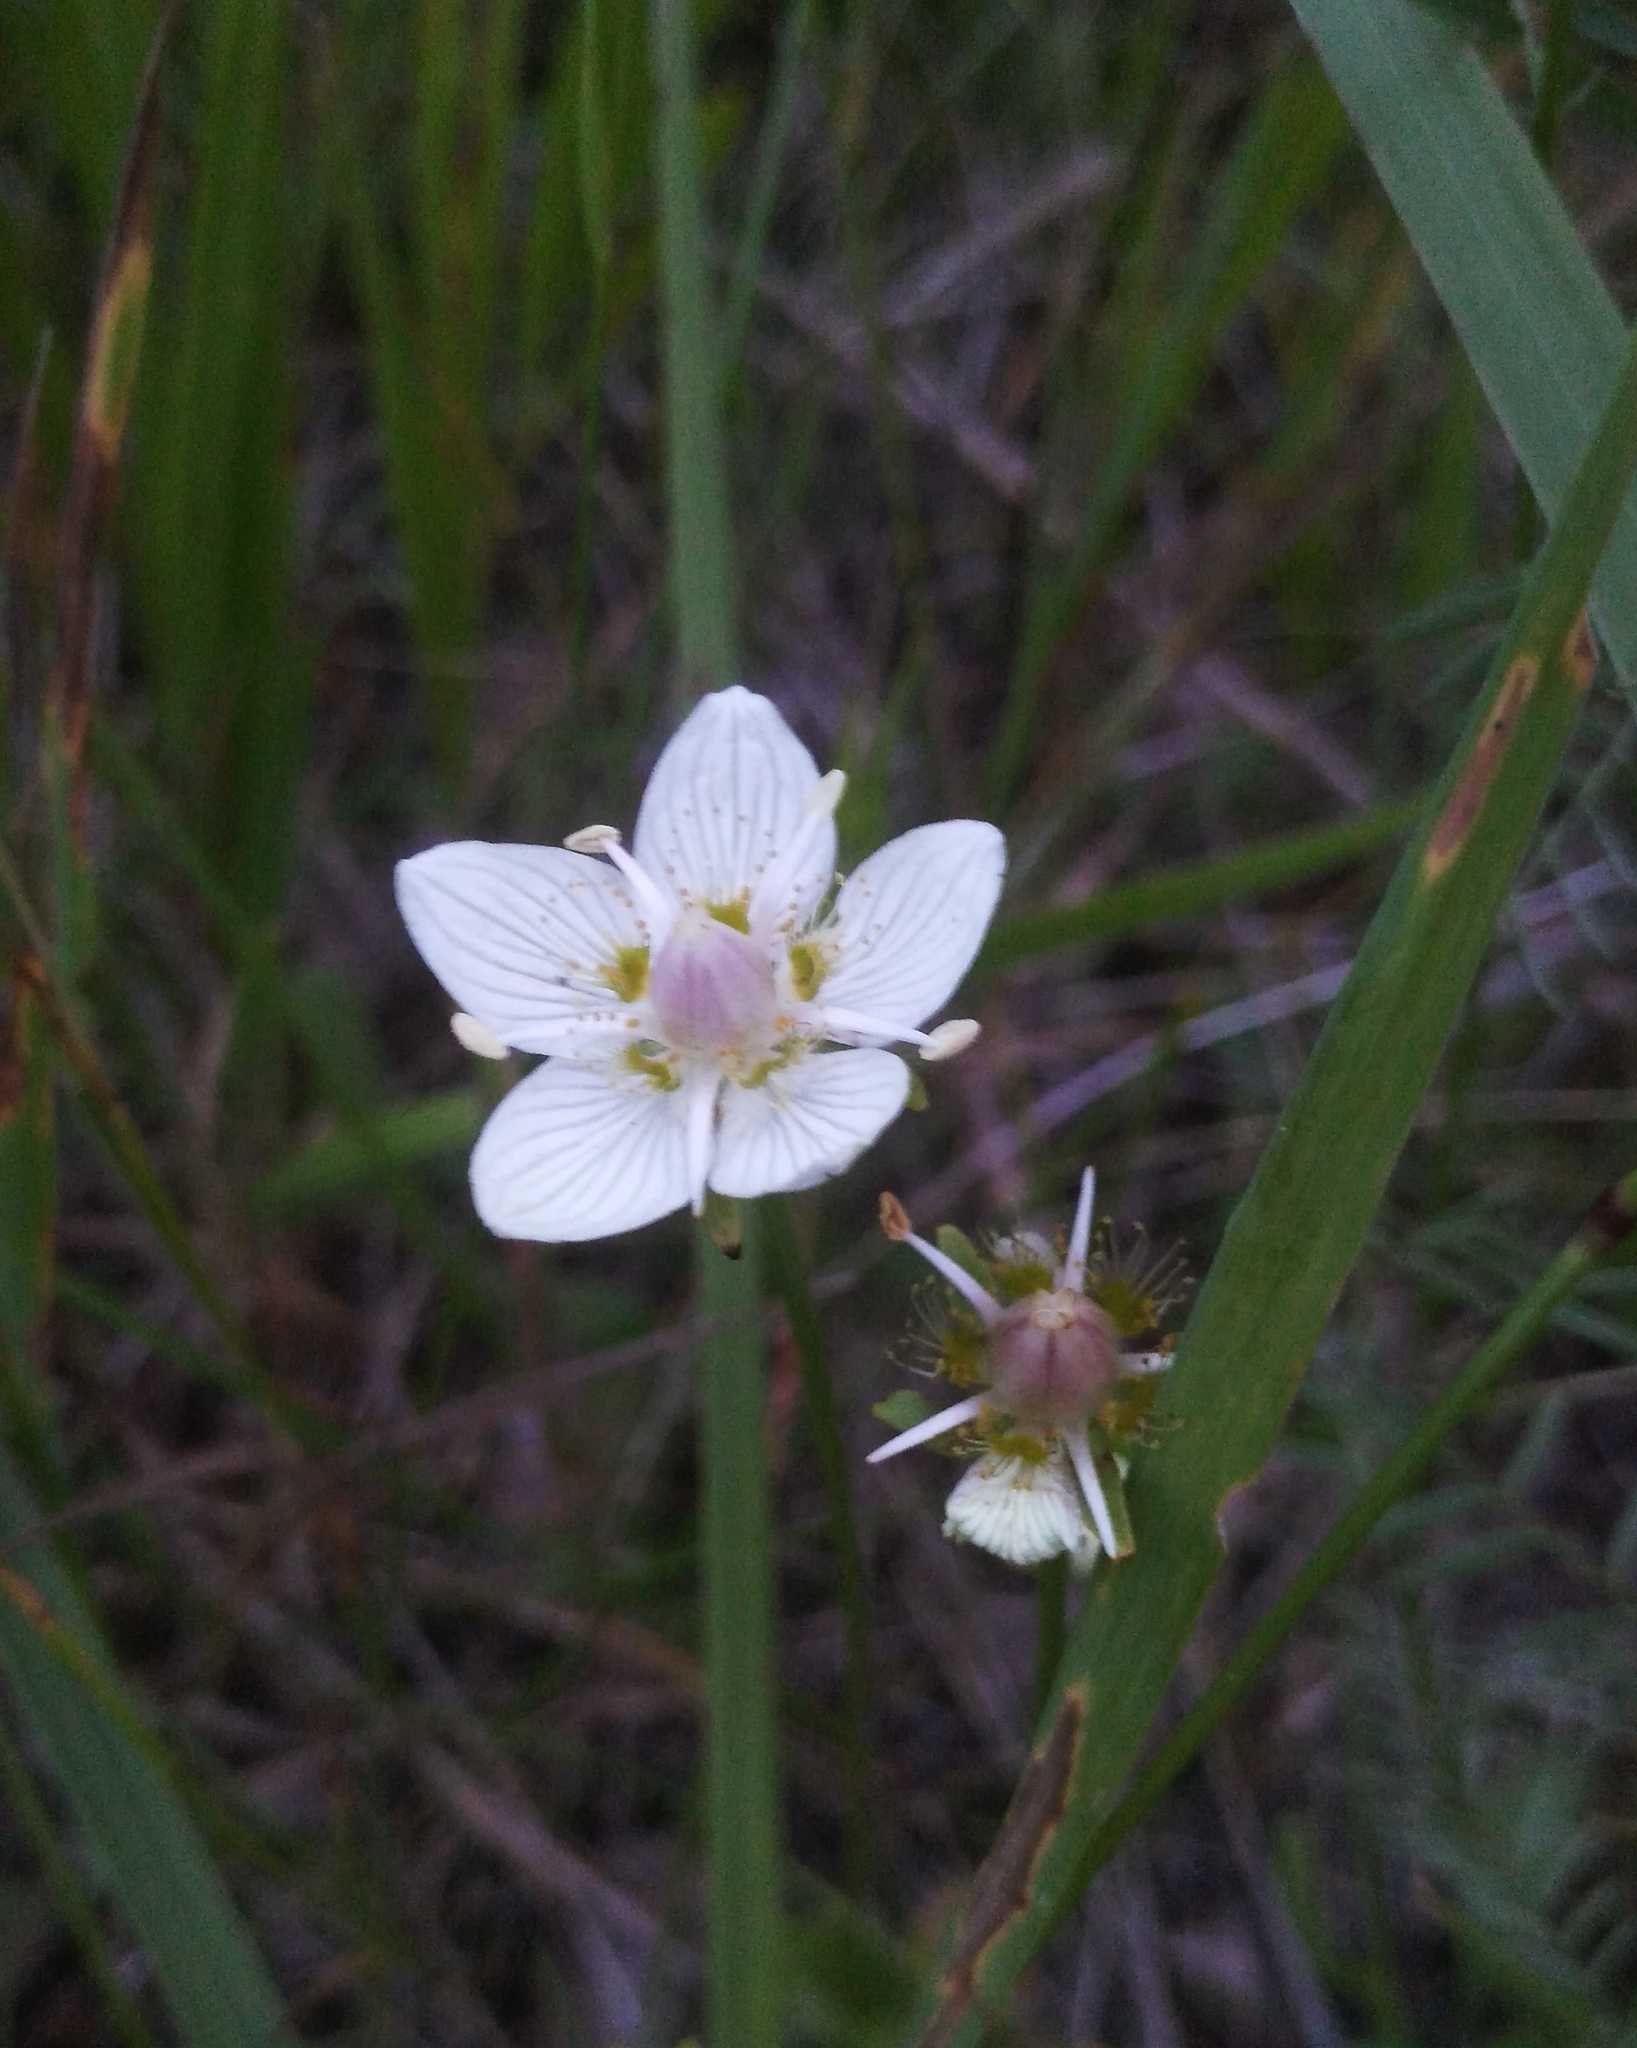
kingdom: Plantae
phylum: Tracheophyta
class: Magnoliopsida
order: Celastrales
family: Parnassiaceae
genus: Parnassia
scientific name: Parnassia palustris
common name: Grass-of-parnassus
